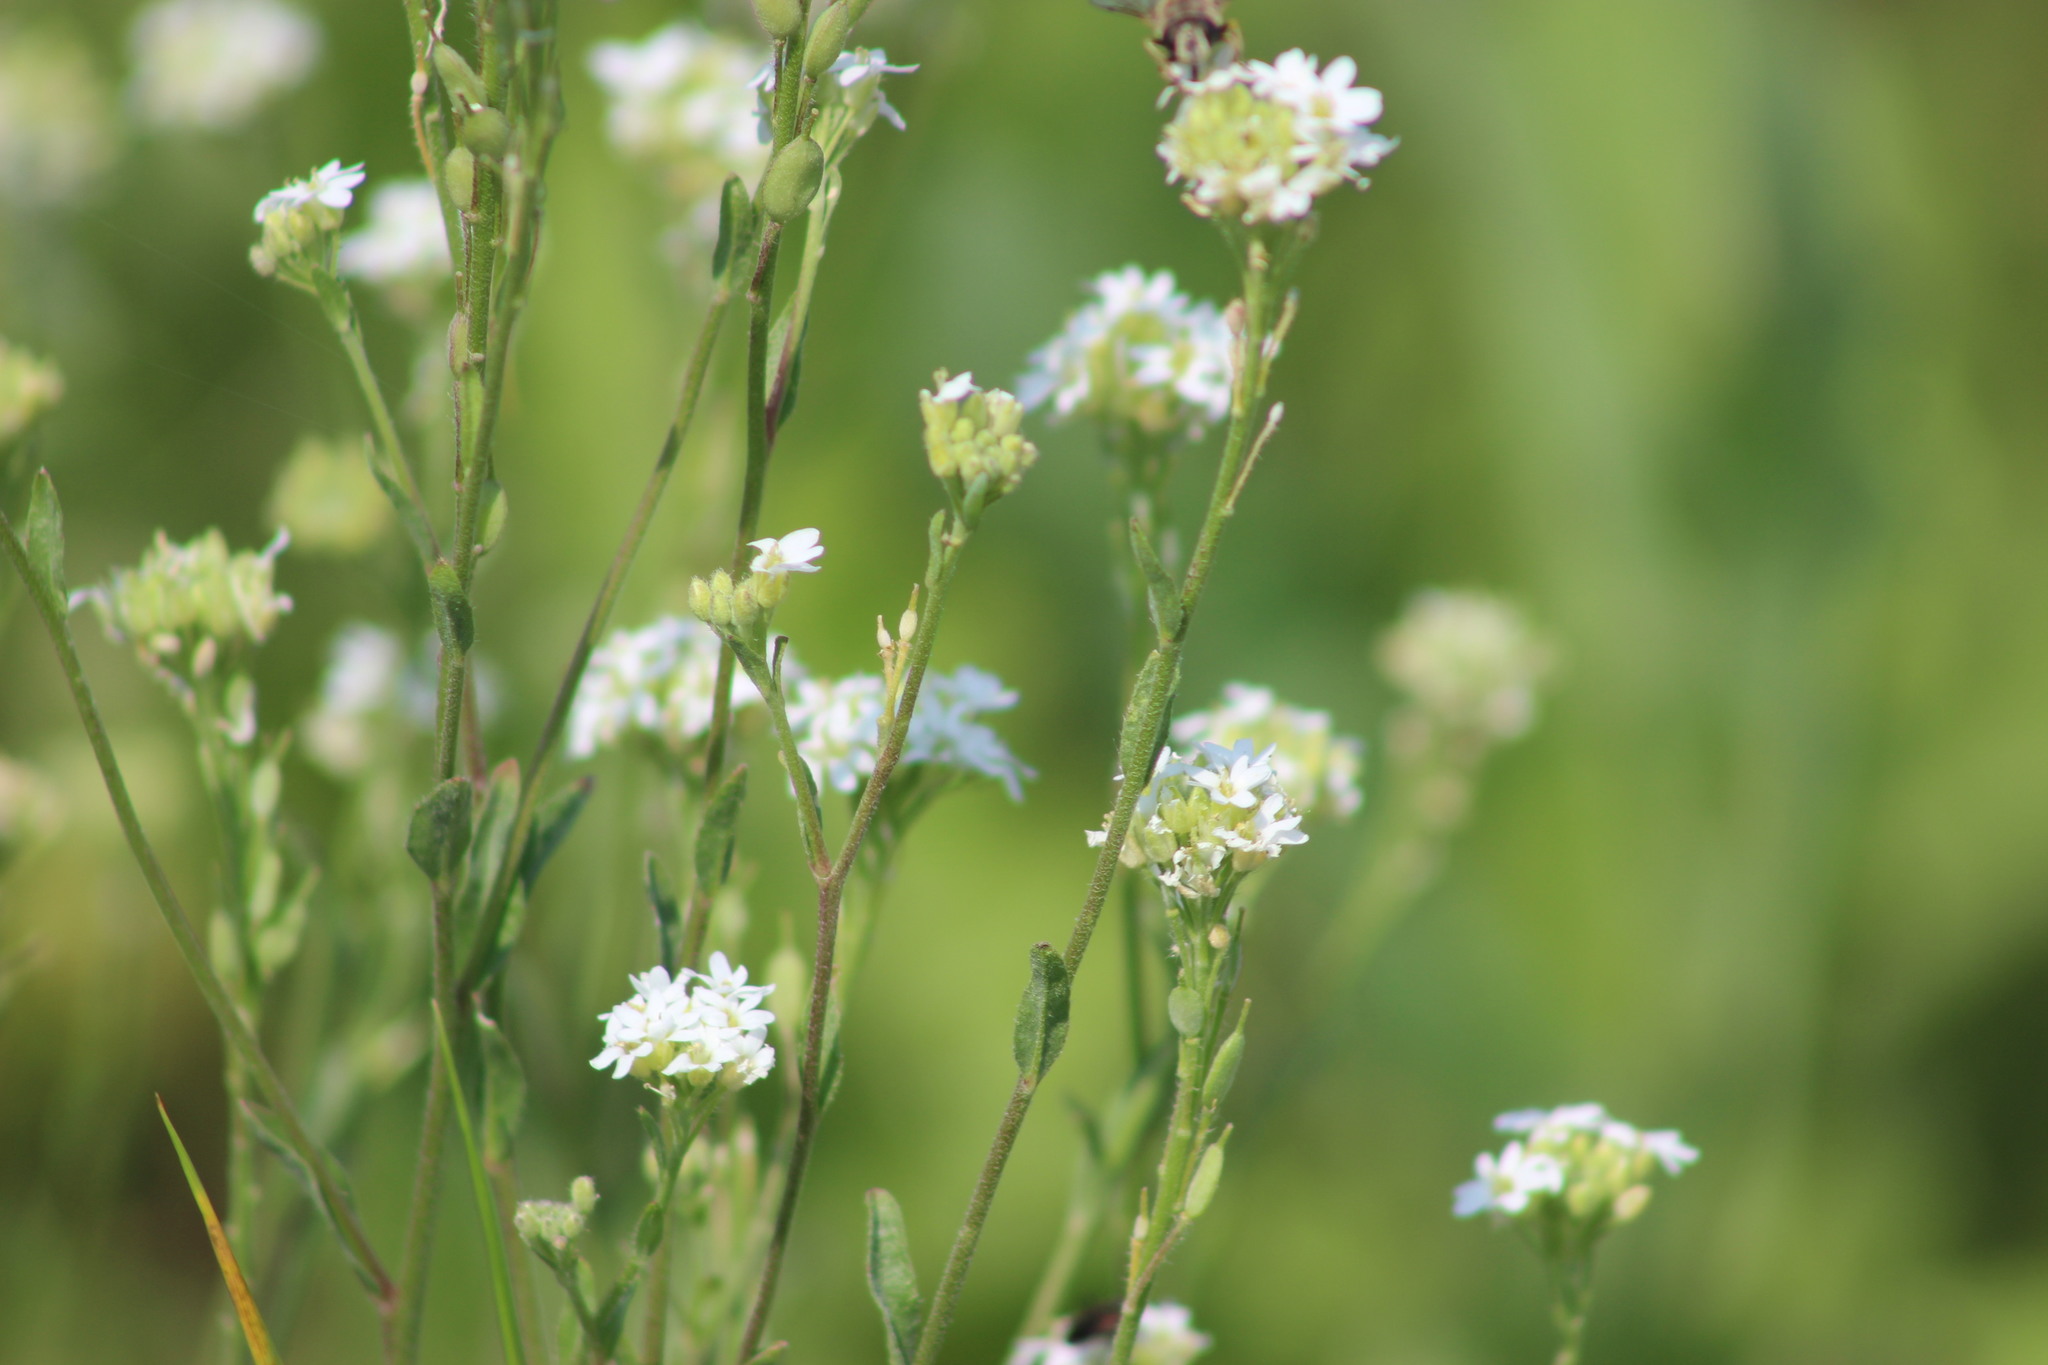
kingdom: Plantae
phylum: Tracheophyta
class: Magnoliopsida
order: Brassicales
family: Brassicaceae
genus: Berteroa
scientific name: Berteroa incana
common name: Hoary alison
